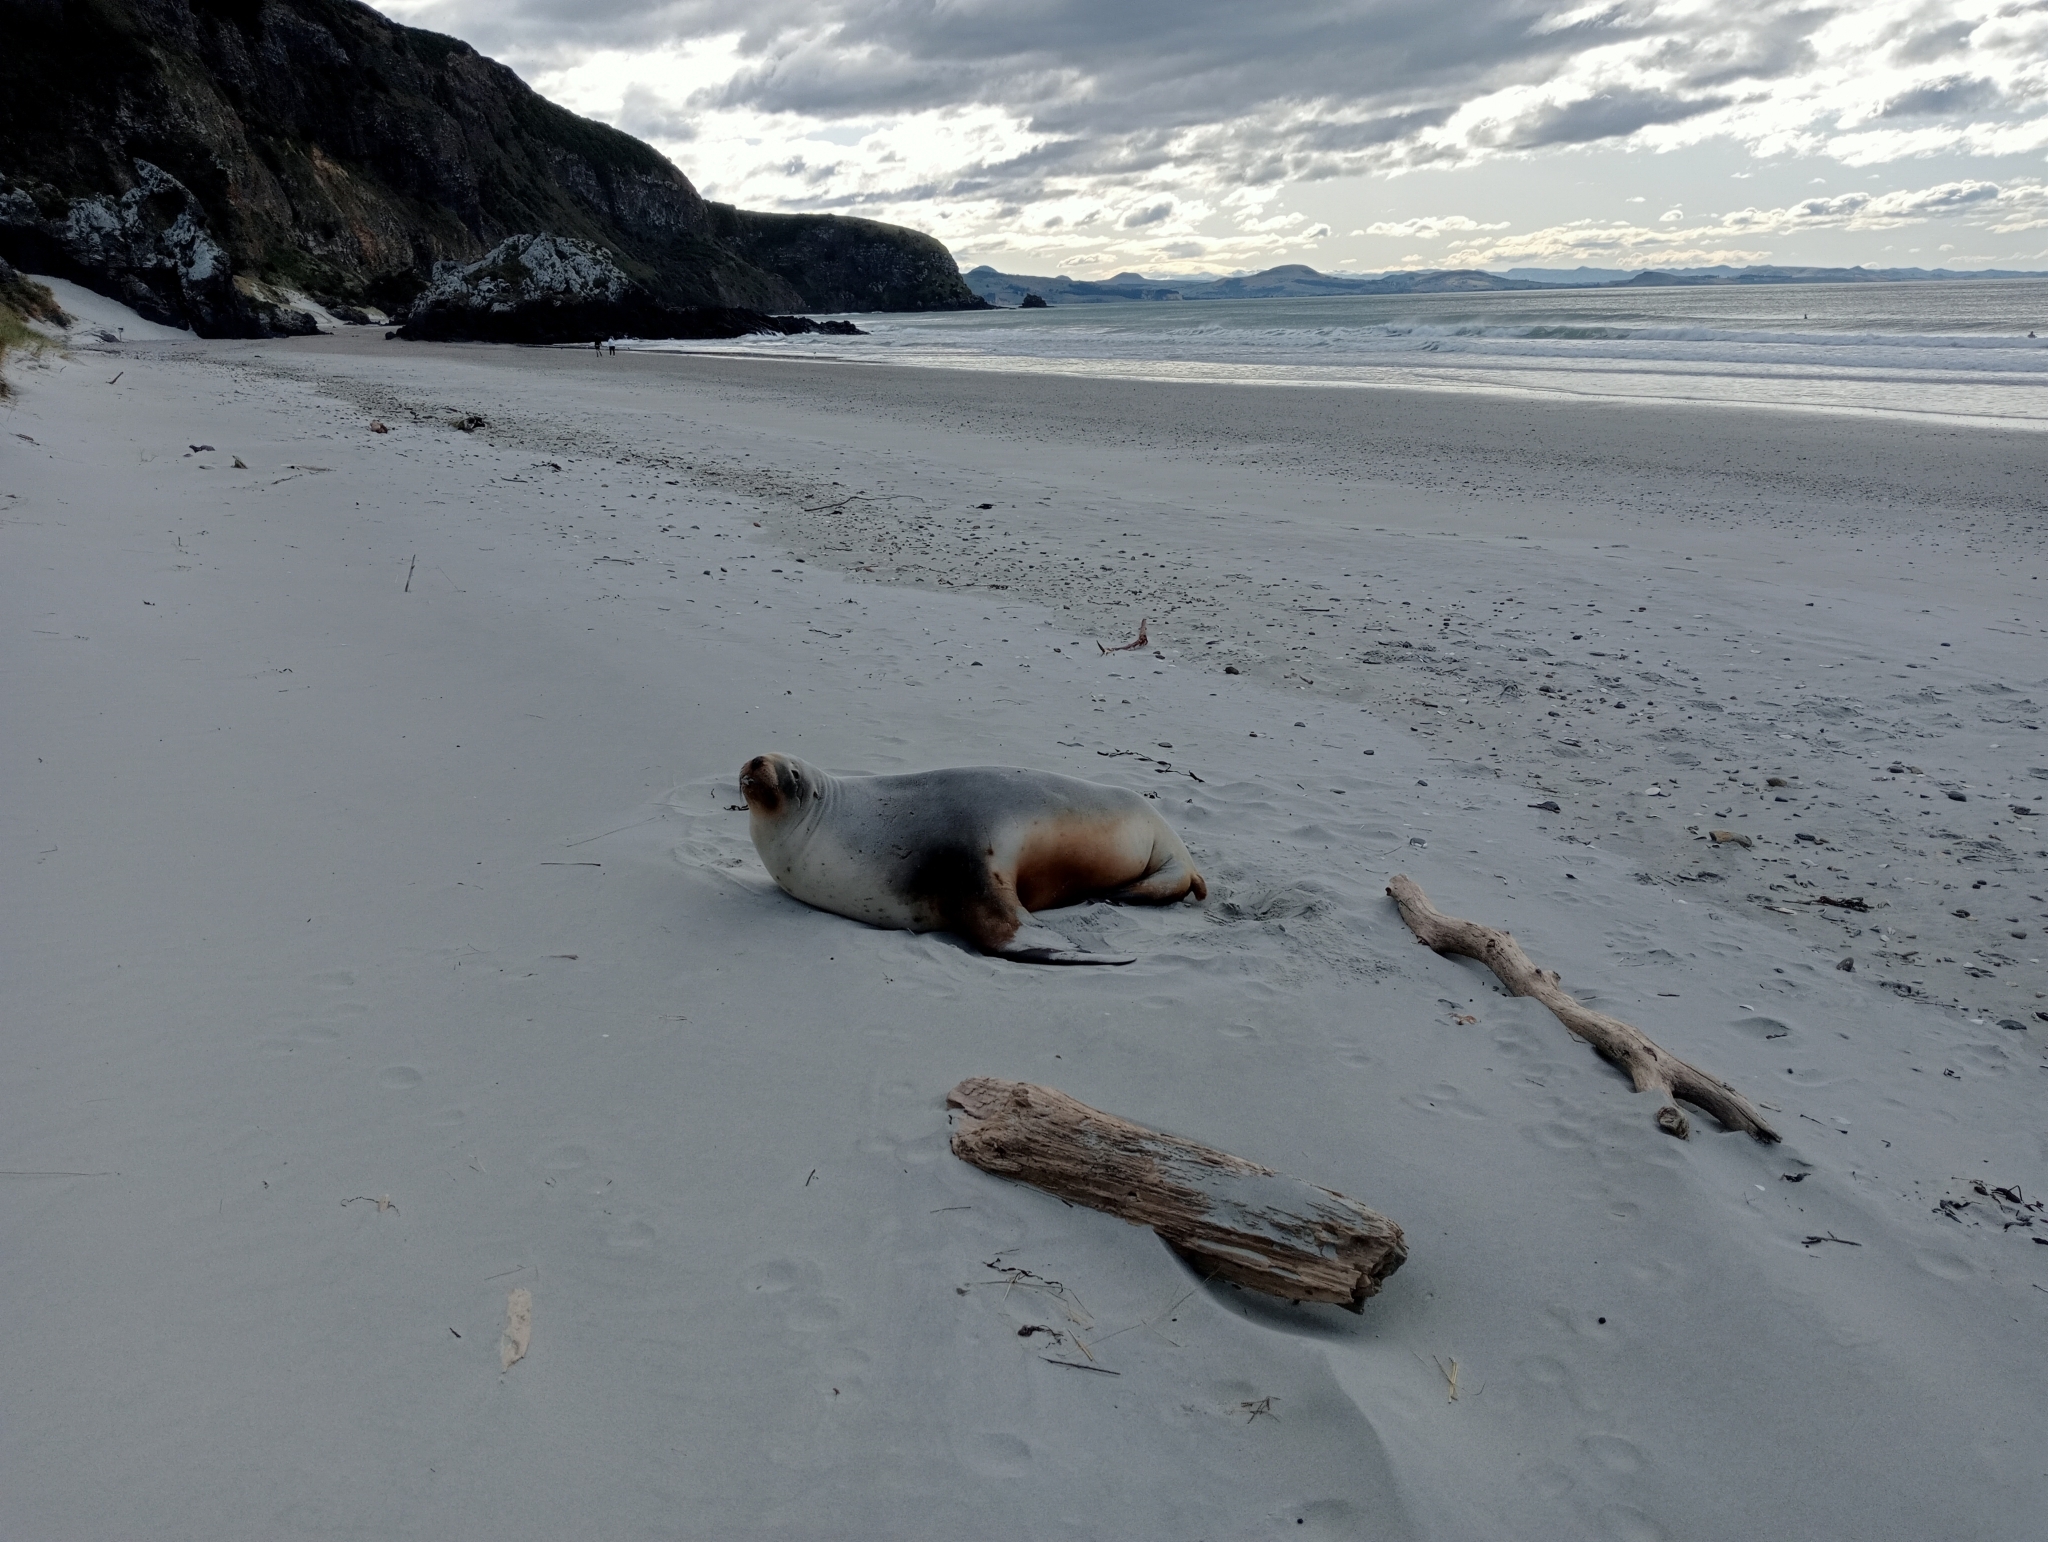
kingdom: Animalia
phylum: Chordata
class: Mammalia
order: Carnivora
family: Otariidae
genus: Phocarctos
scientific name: Phocarctos hookeri
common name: New zealand sea lion
